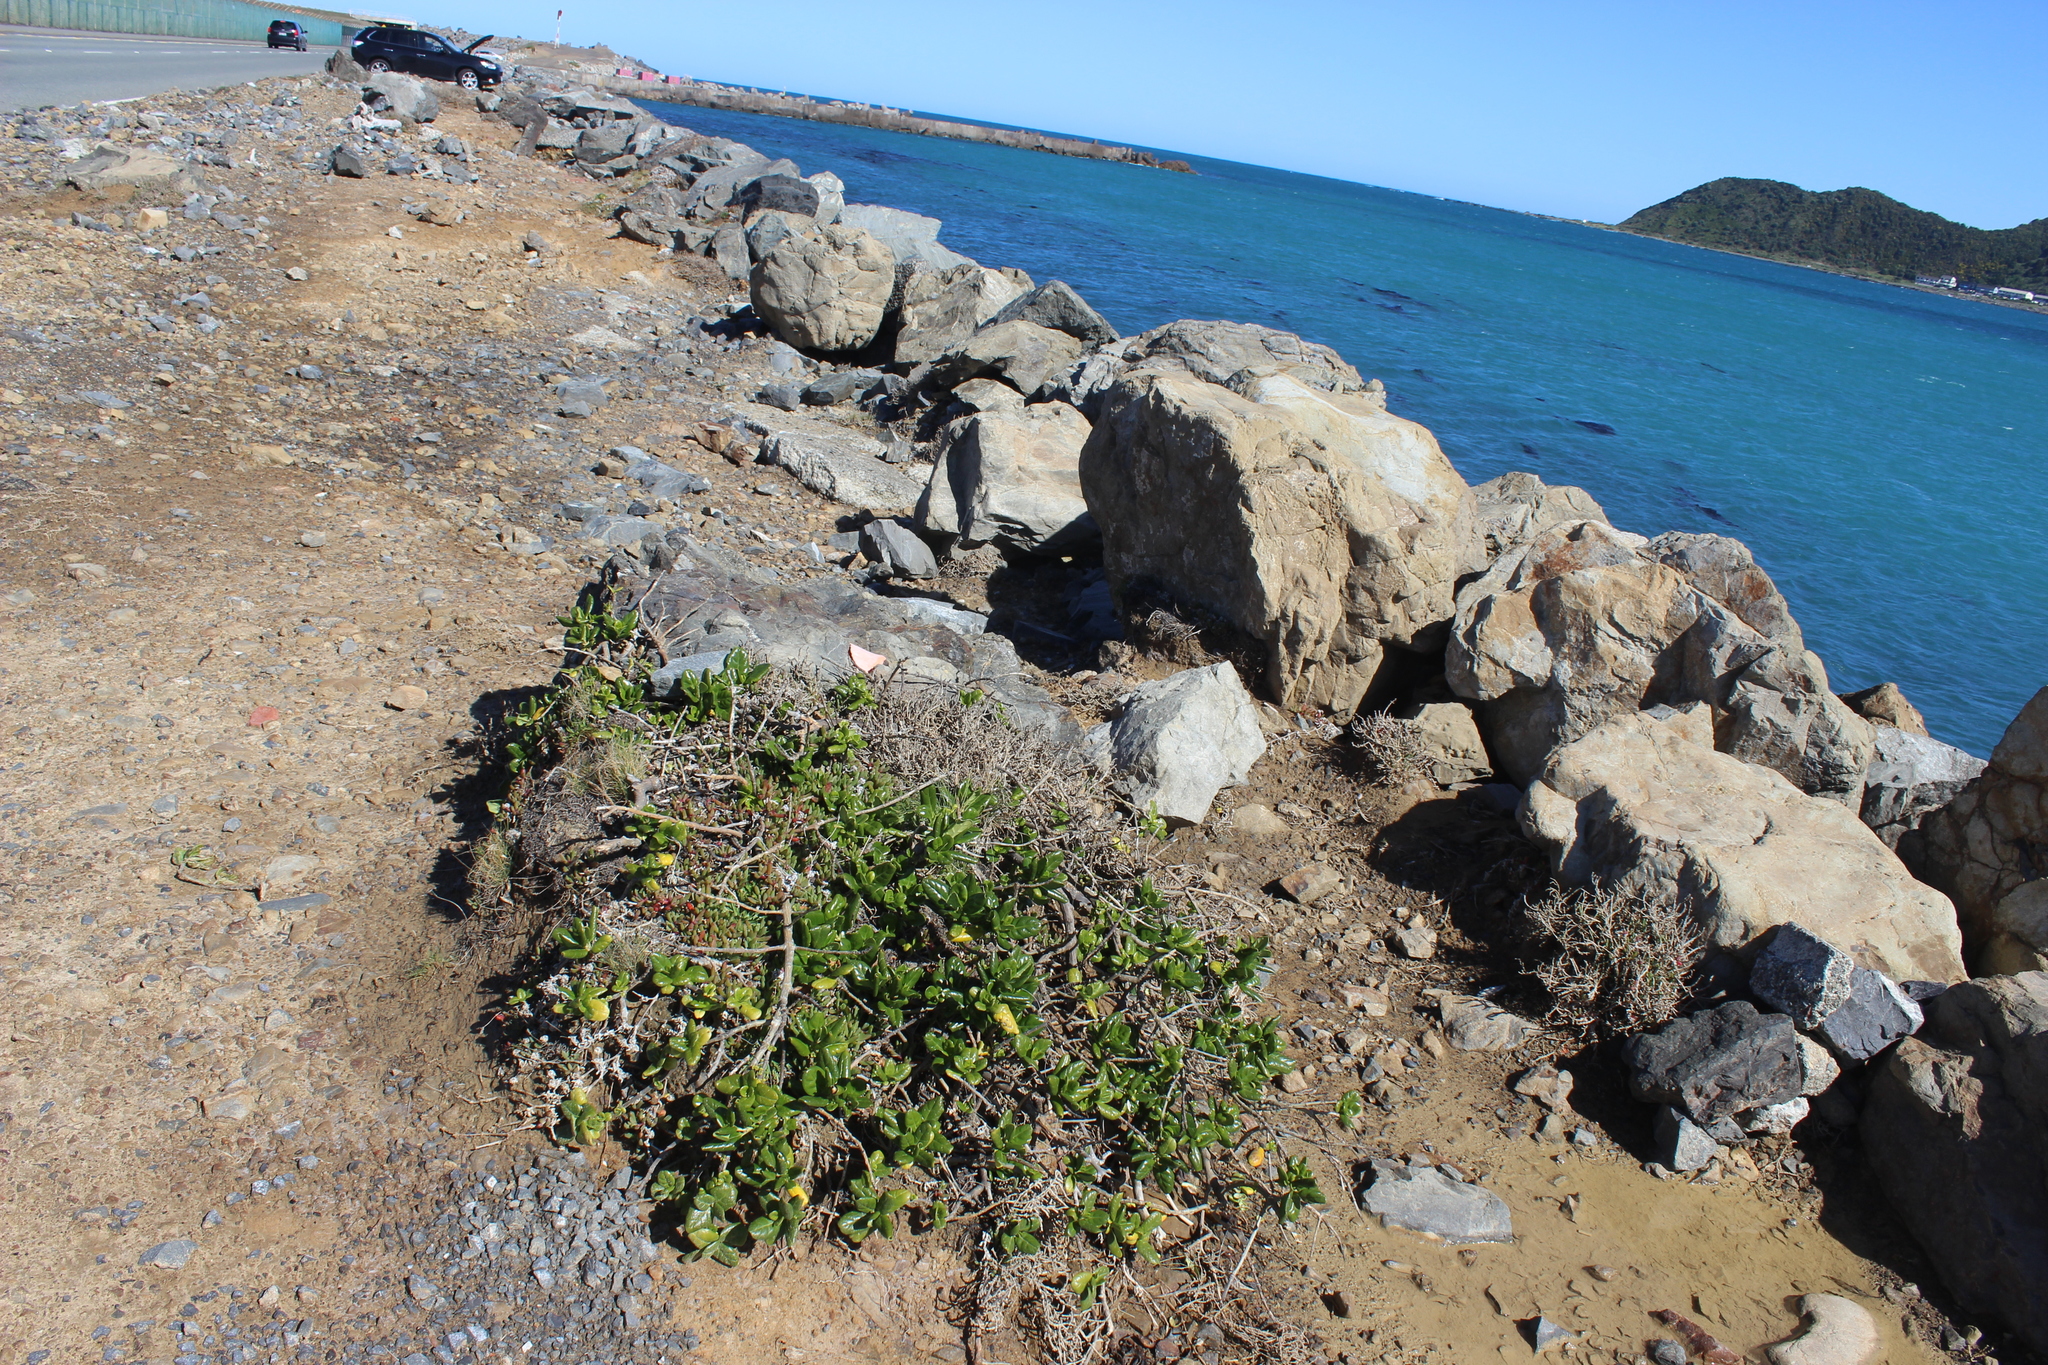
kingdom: Plantae
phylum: Tracheophyta
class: Magnoliopsida
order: Gentianales
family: Rubiaceae
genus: Coprosma
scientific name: Coprosma repens
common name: Tree bedstraw
